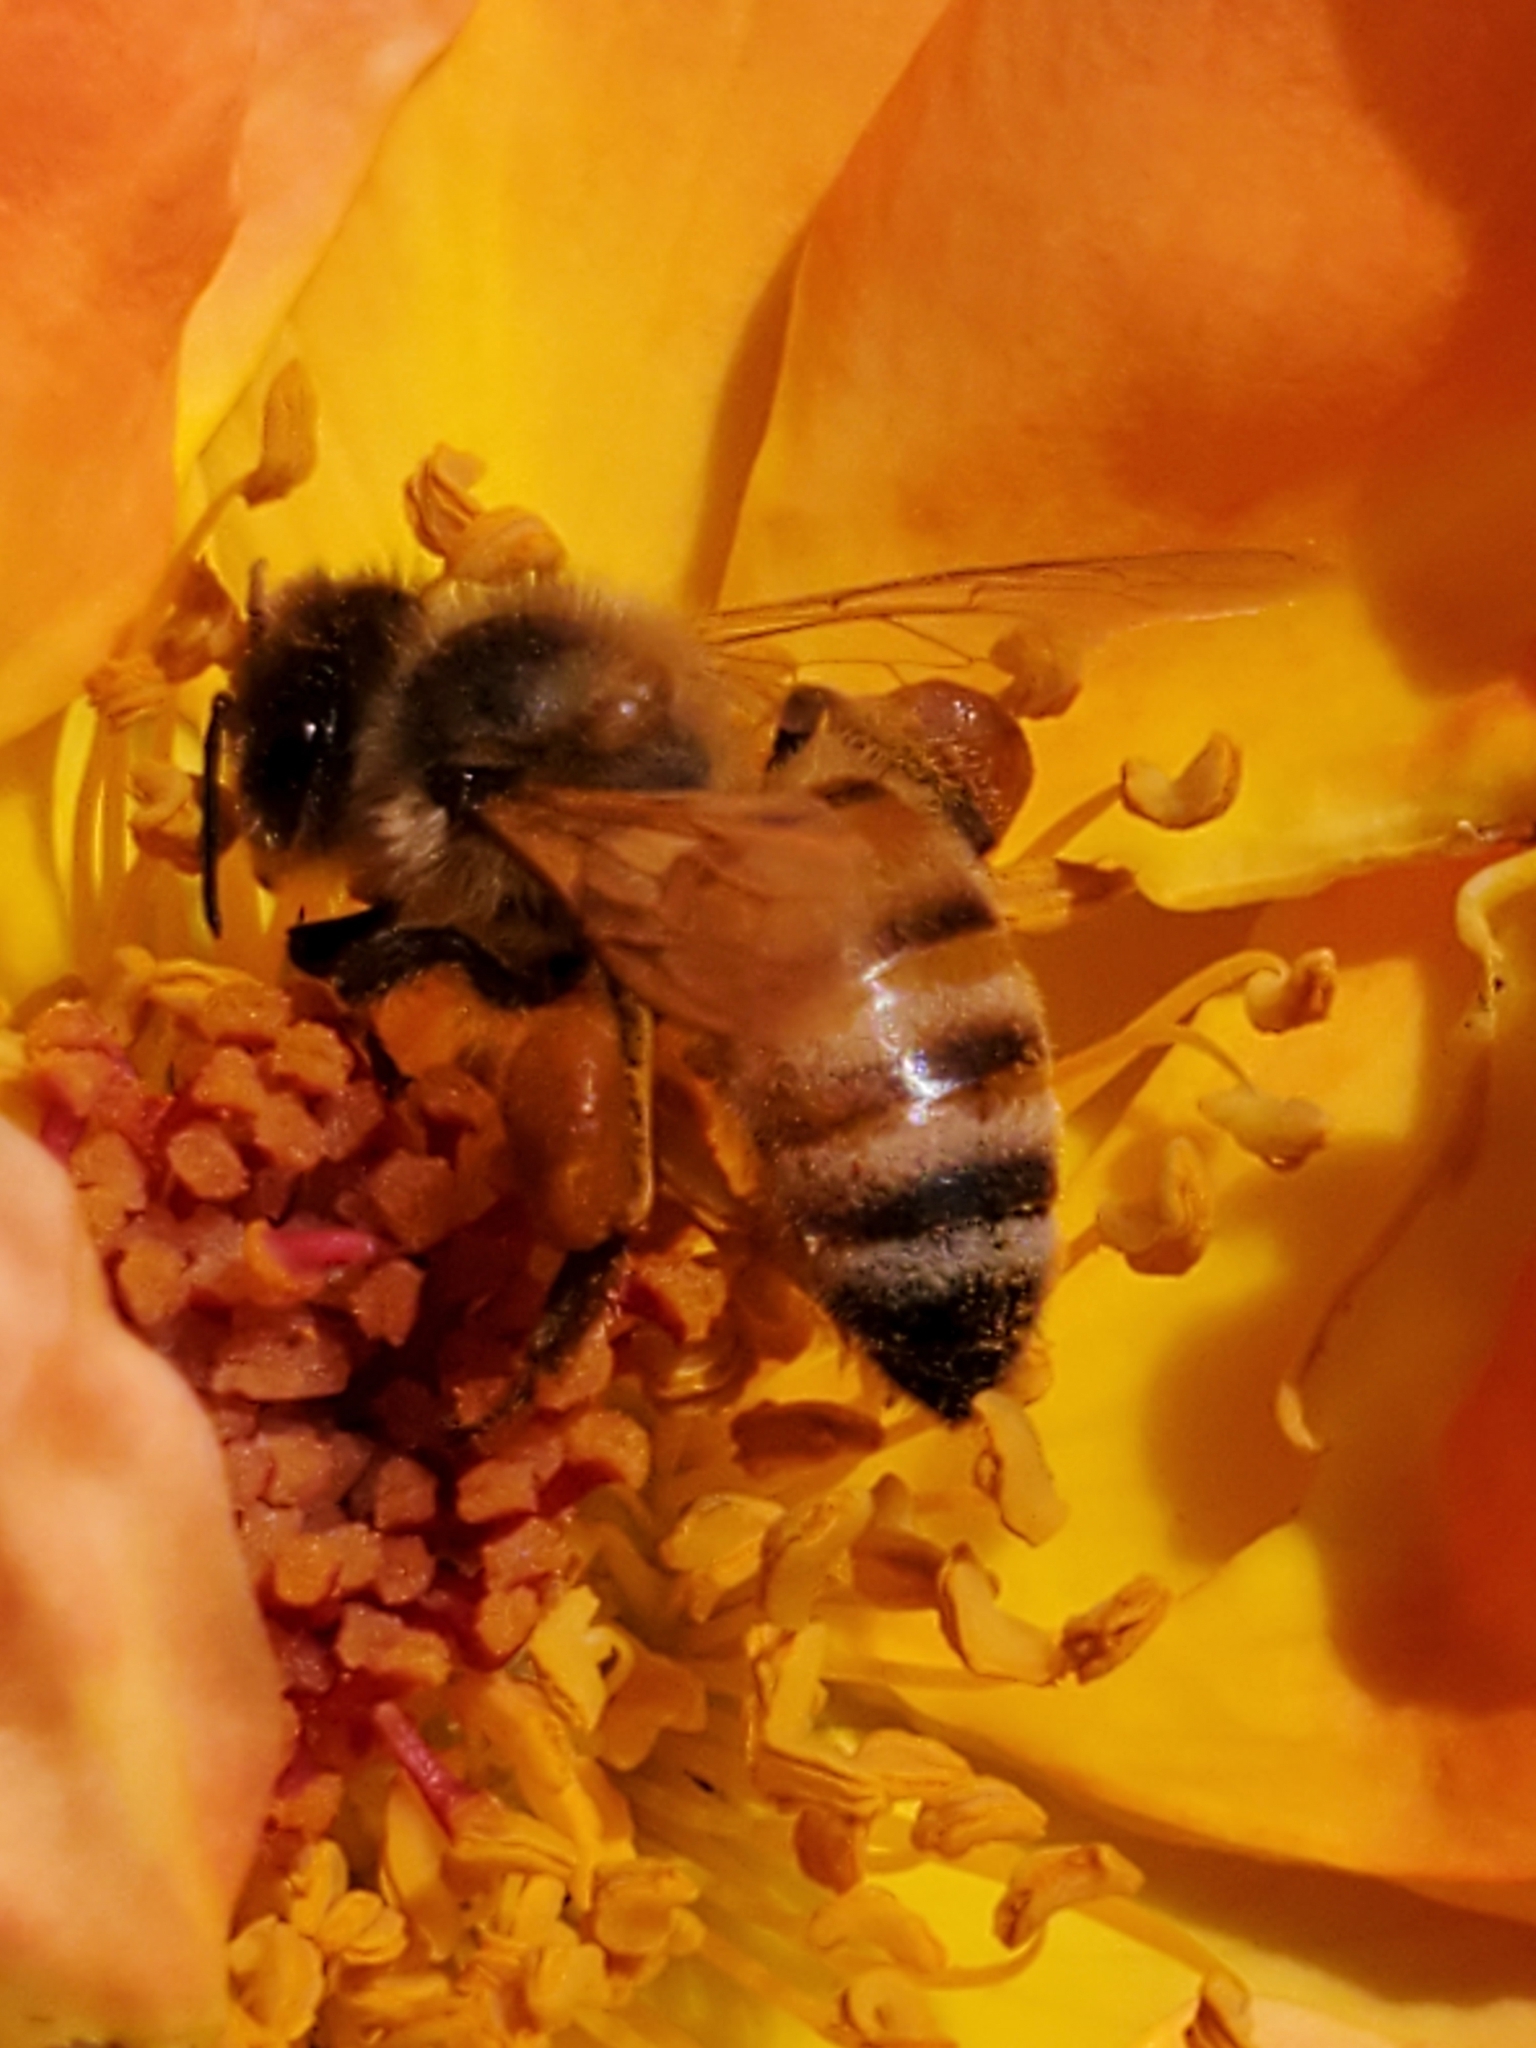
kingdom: Animalia
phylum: Arthropoda
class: Insecta
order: Hymenoptera
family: Apidae
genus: Apis
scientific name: Apis mellifera
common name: Honey bee
